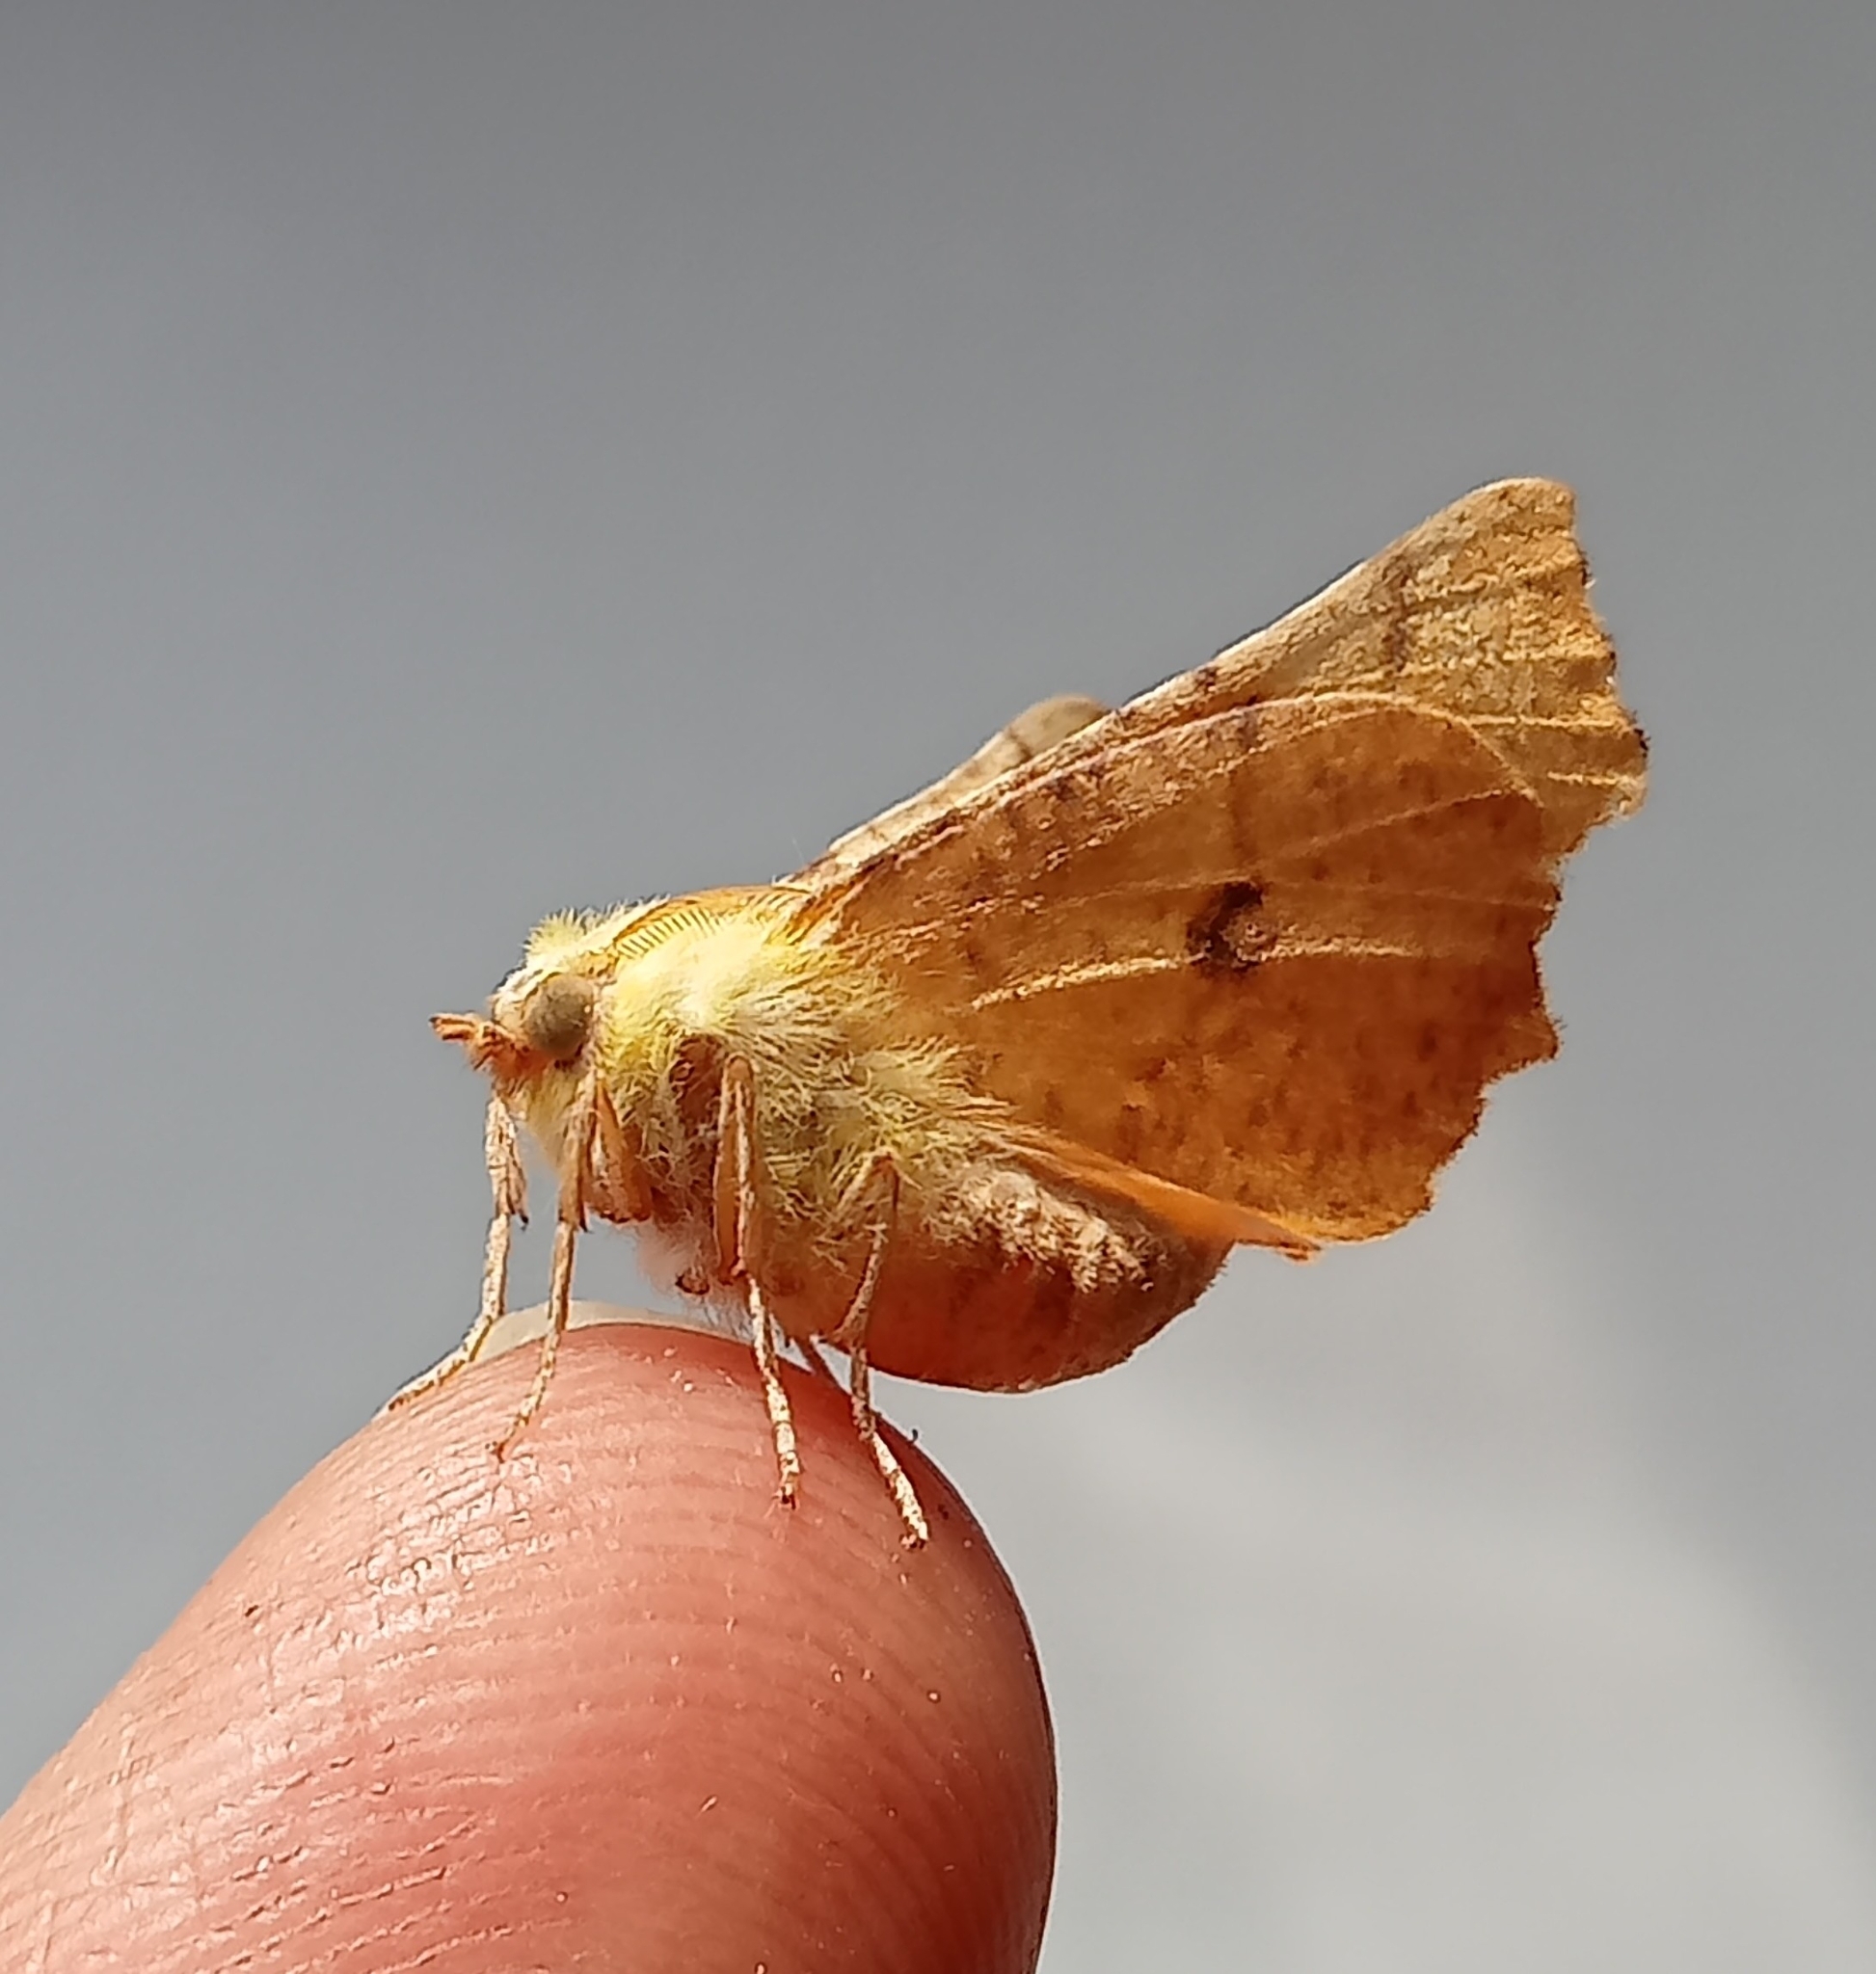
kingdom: Animalia
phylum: Arthropoda
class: Insecta
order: Lepidoptera
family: Geometridae
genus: Ennomos
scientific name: Ennomos alniaria
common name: Canary-shouldered thorn
